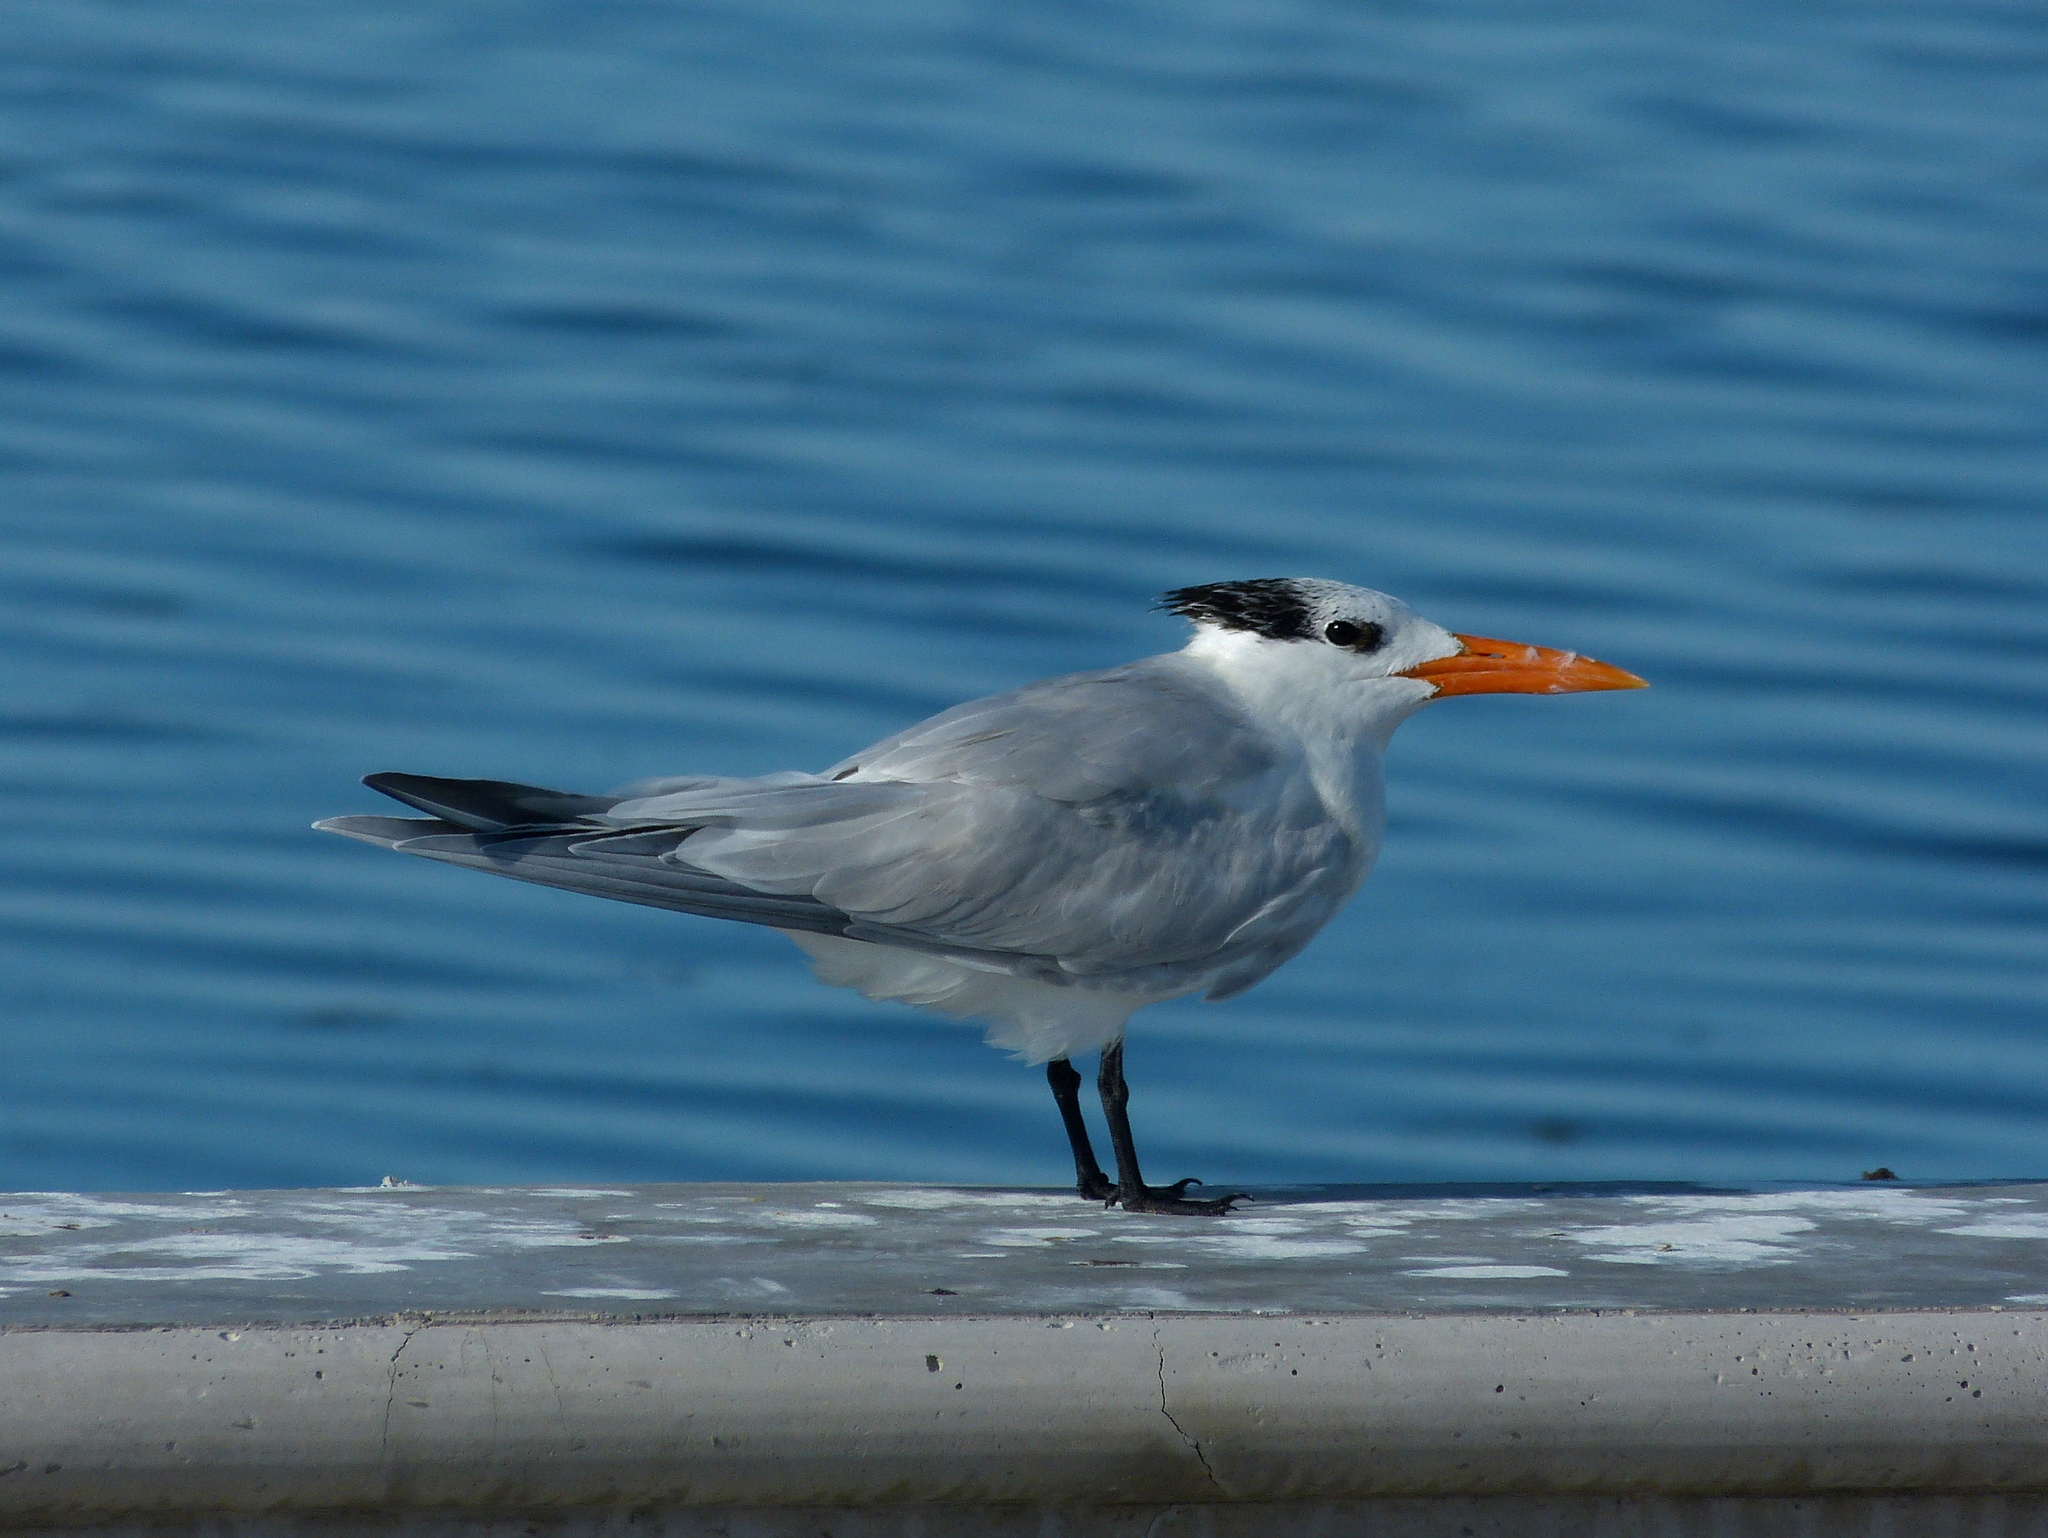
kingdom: Animalia
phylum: Chordata
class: Aves
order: Charadriiformes
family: Laridae
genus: Thalasseus
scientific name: Thalasseus maximus
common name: Royal tern
